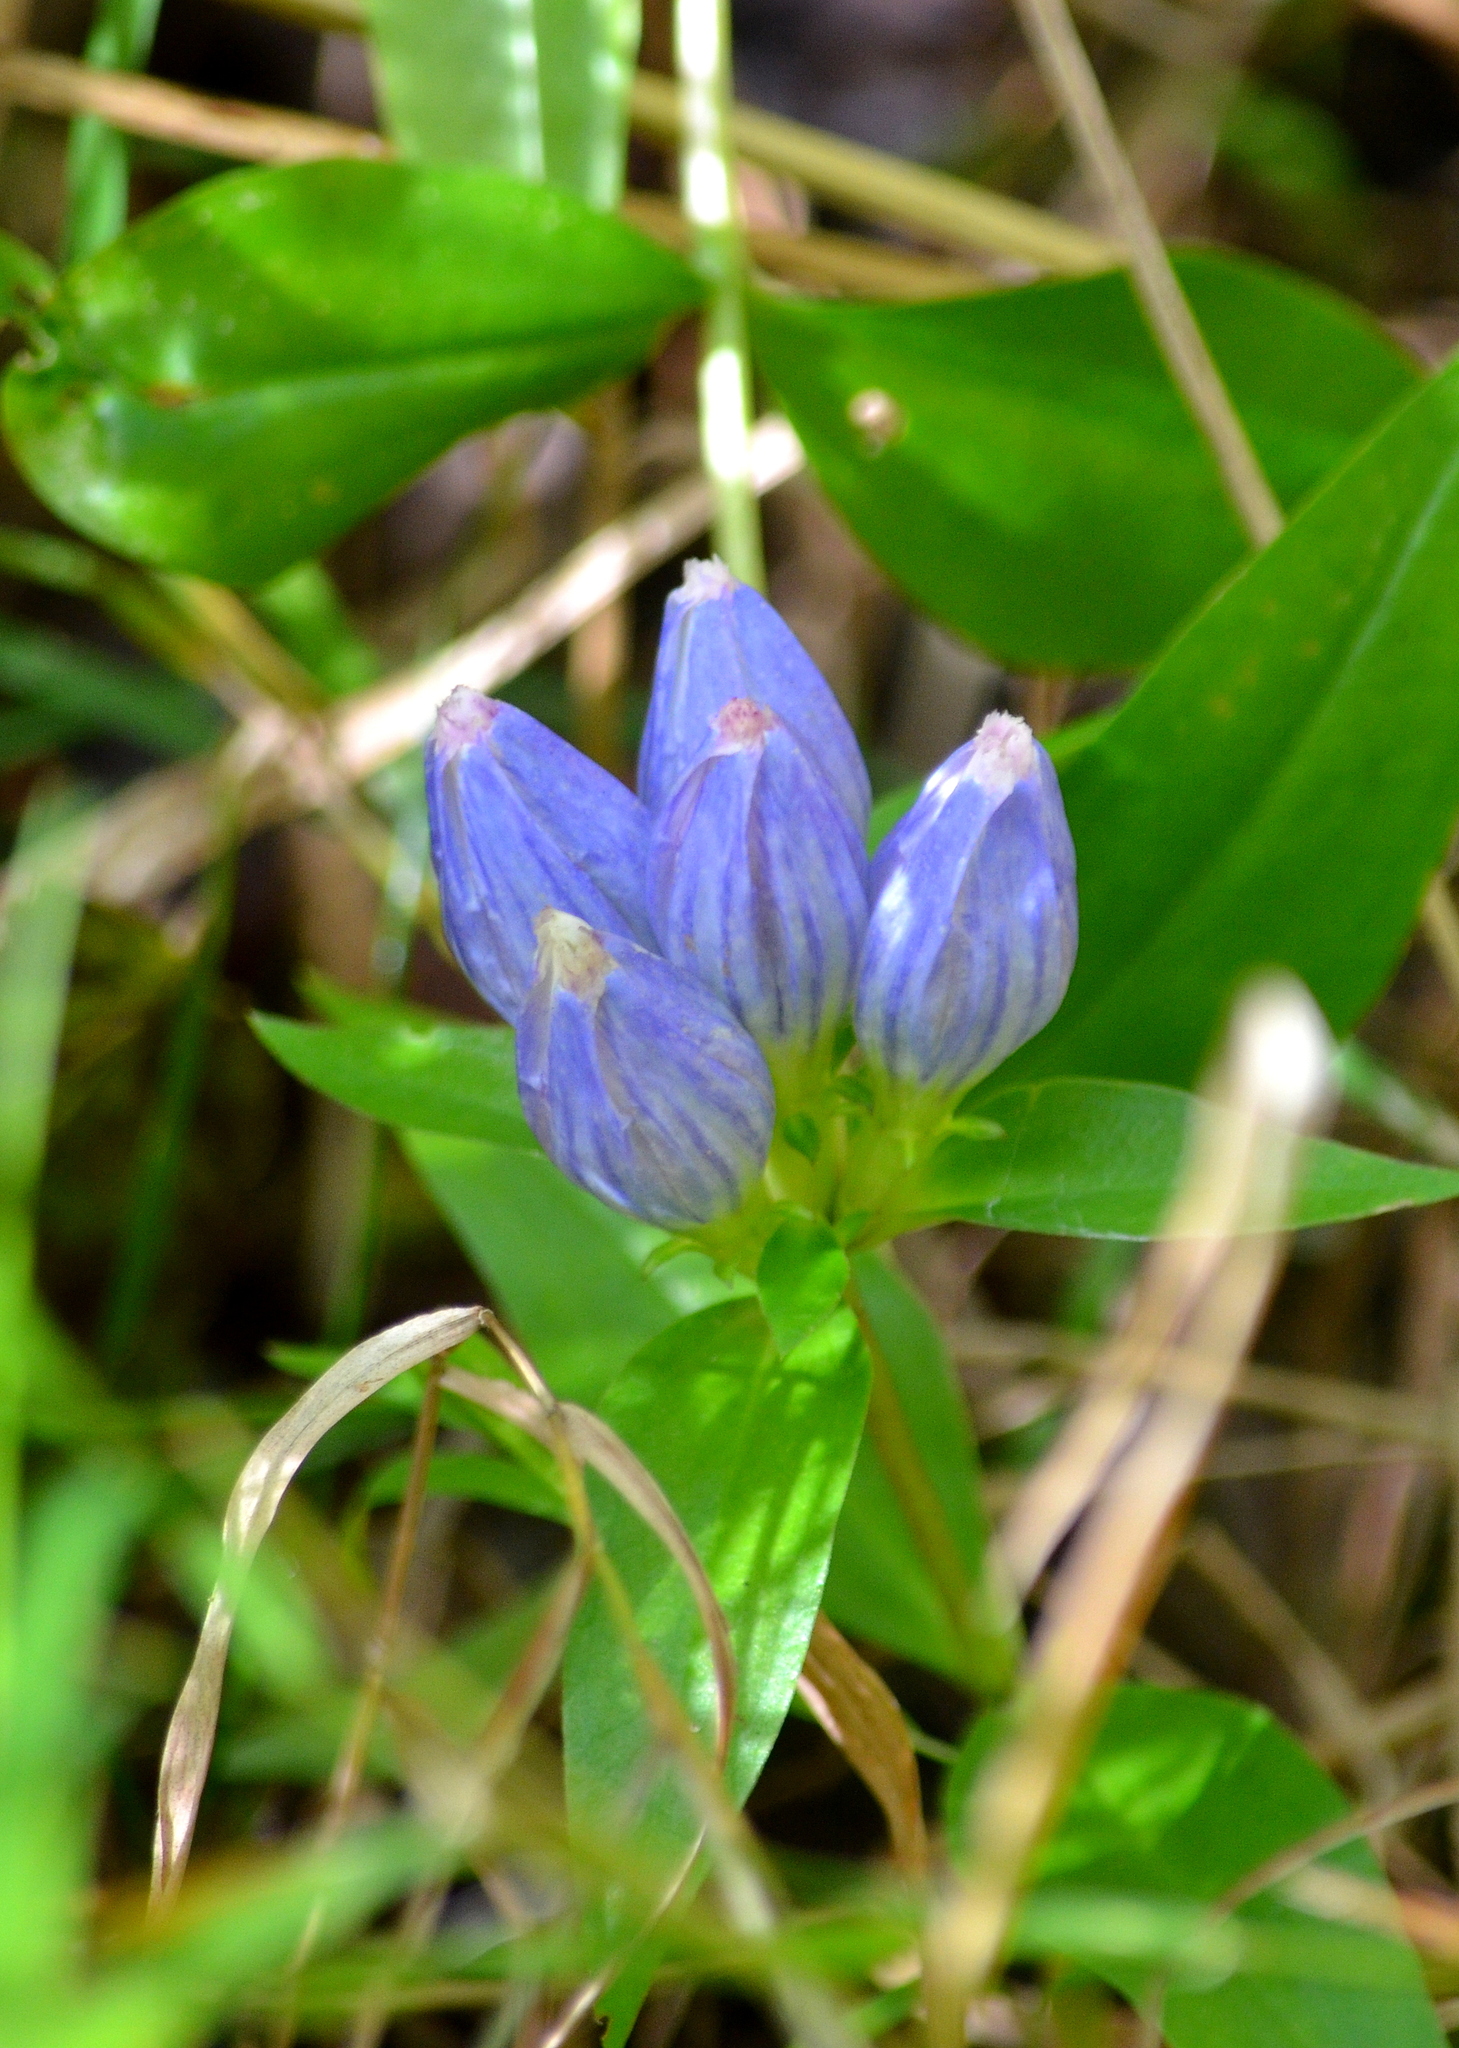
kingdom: Plantae
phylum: Tracheophyta
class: Magnoliopsida
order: Gentianales
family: Gentianaceae
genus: Gentiana
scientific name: Gentiana andrewsii
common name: Bottle gentian
